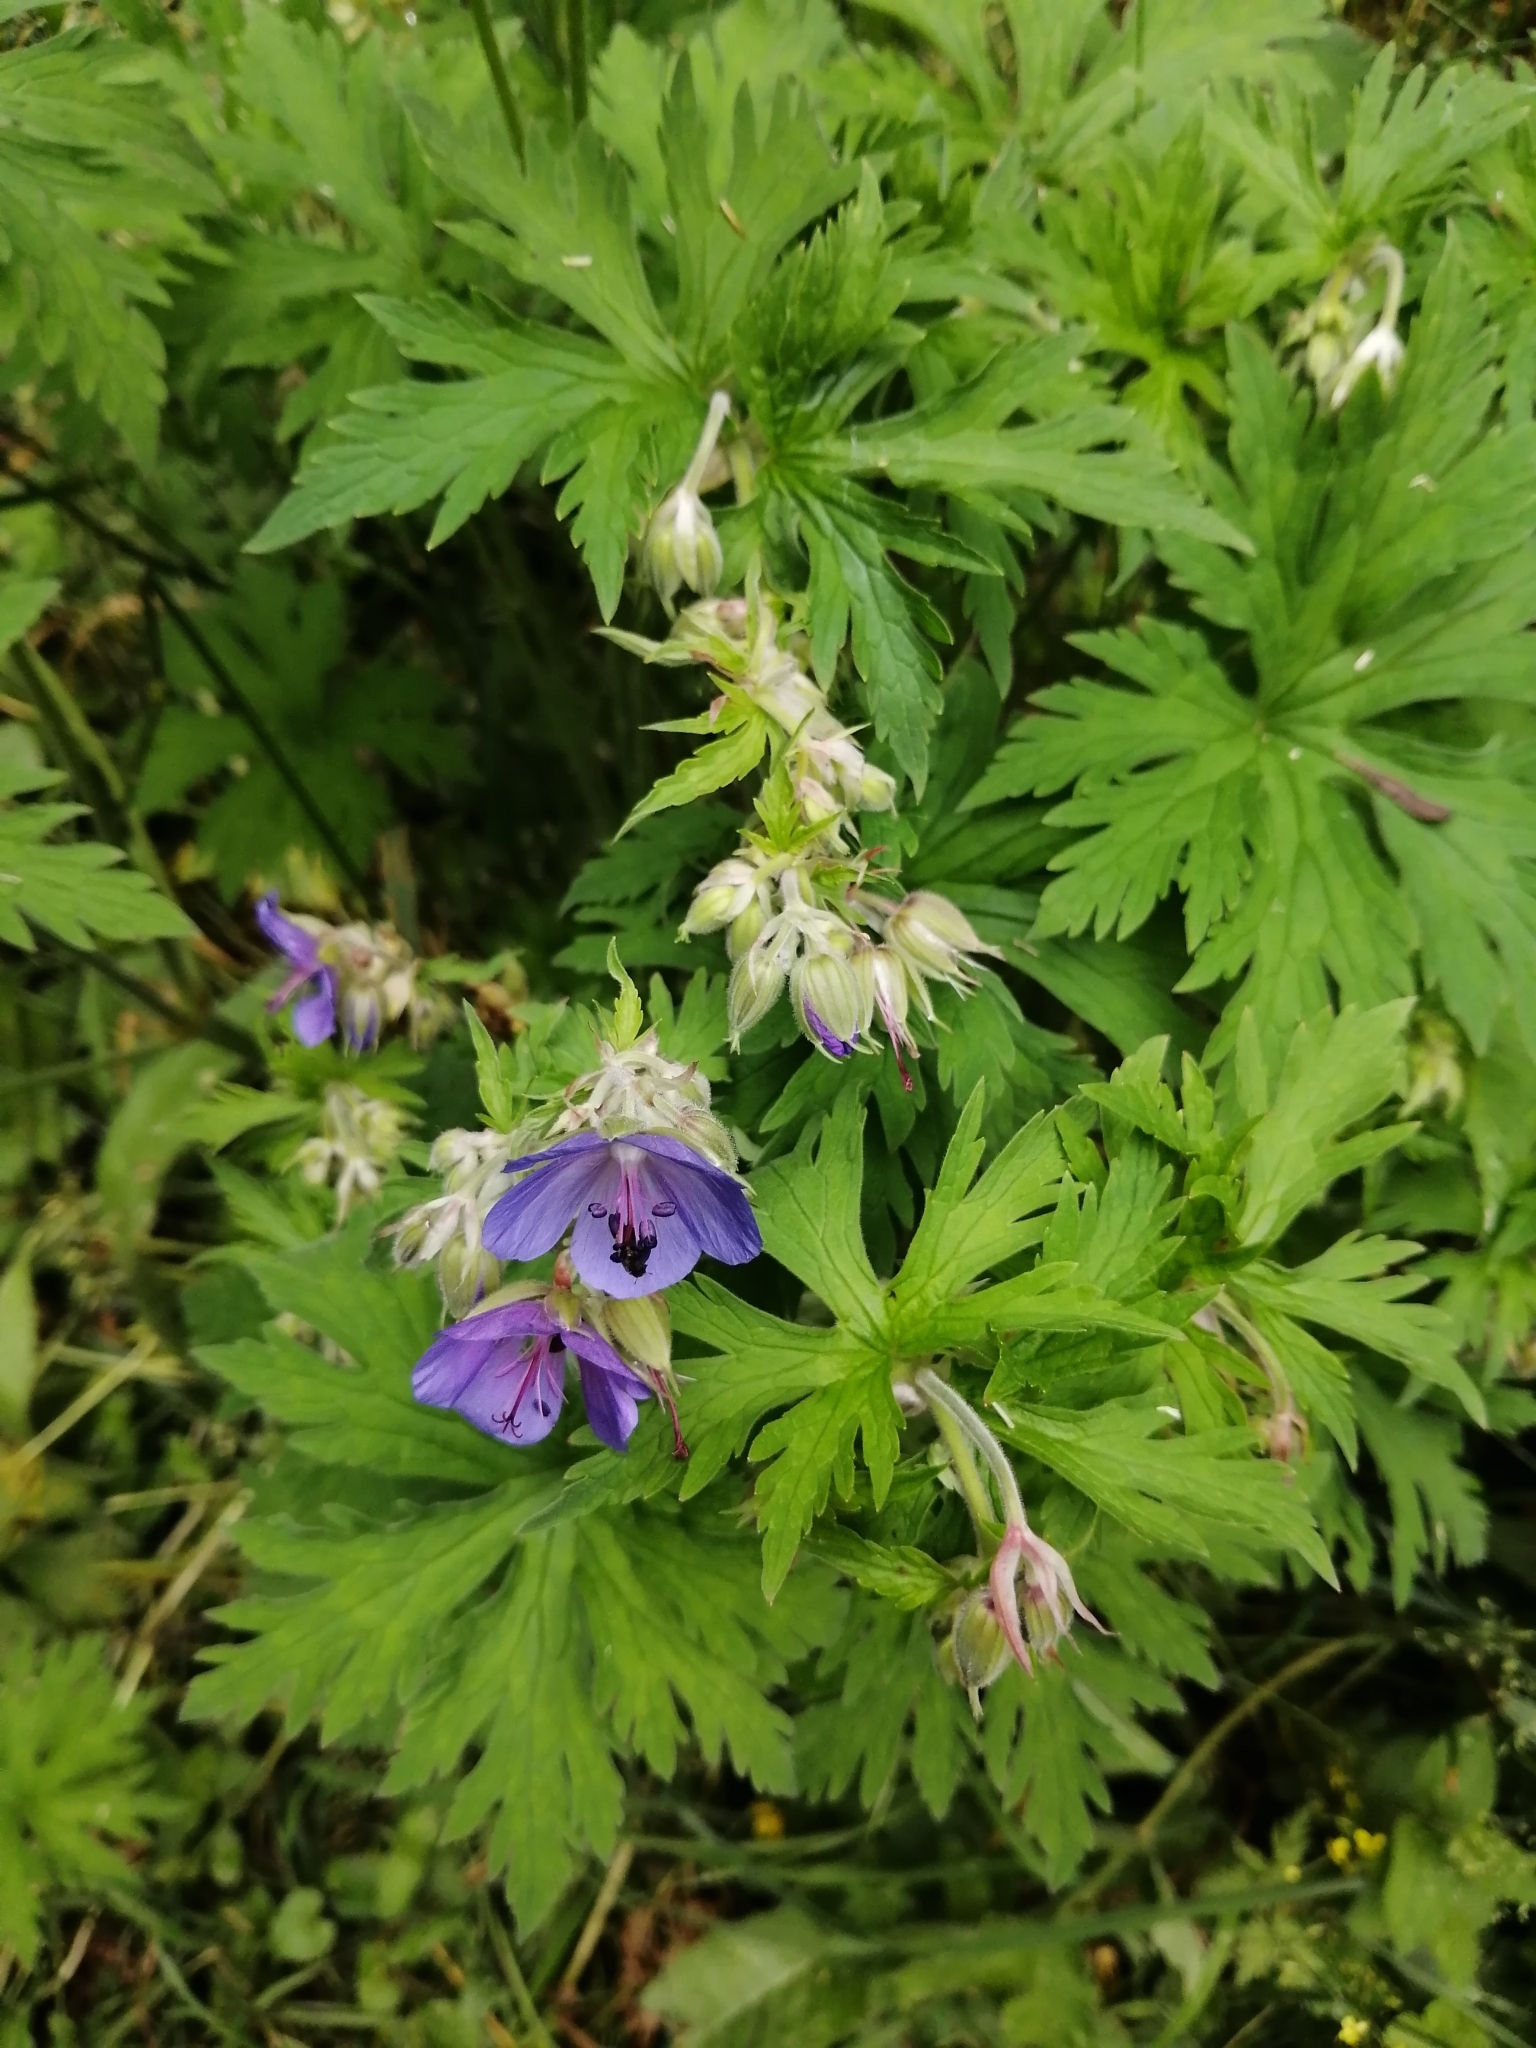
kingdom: Plantae
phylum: Tracheophyta
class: Magnoliopsida
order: Geraniales
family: Geraniaceae
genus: Geranium
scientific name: Geranium pratense
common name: Meadow crane's-bill
